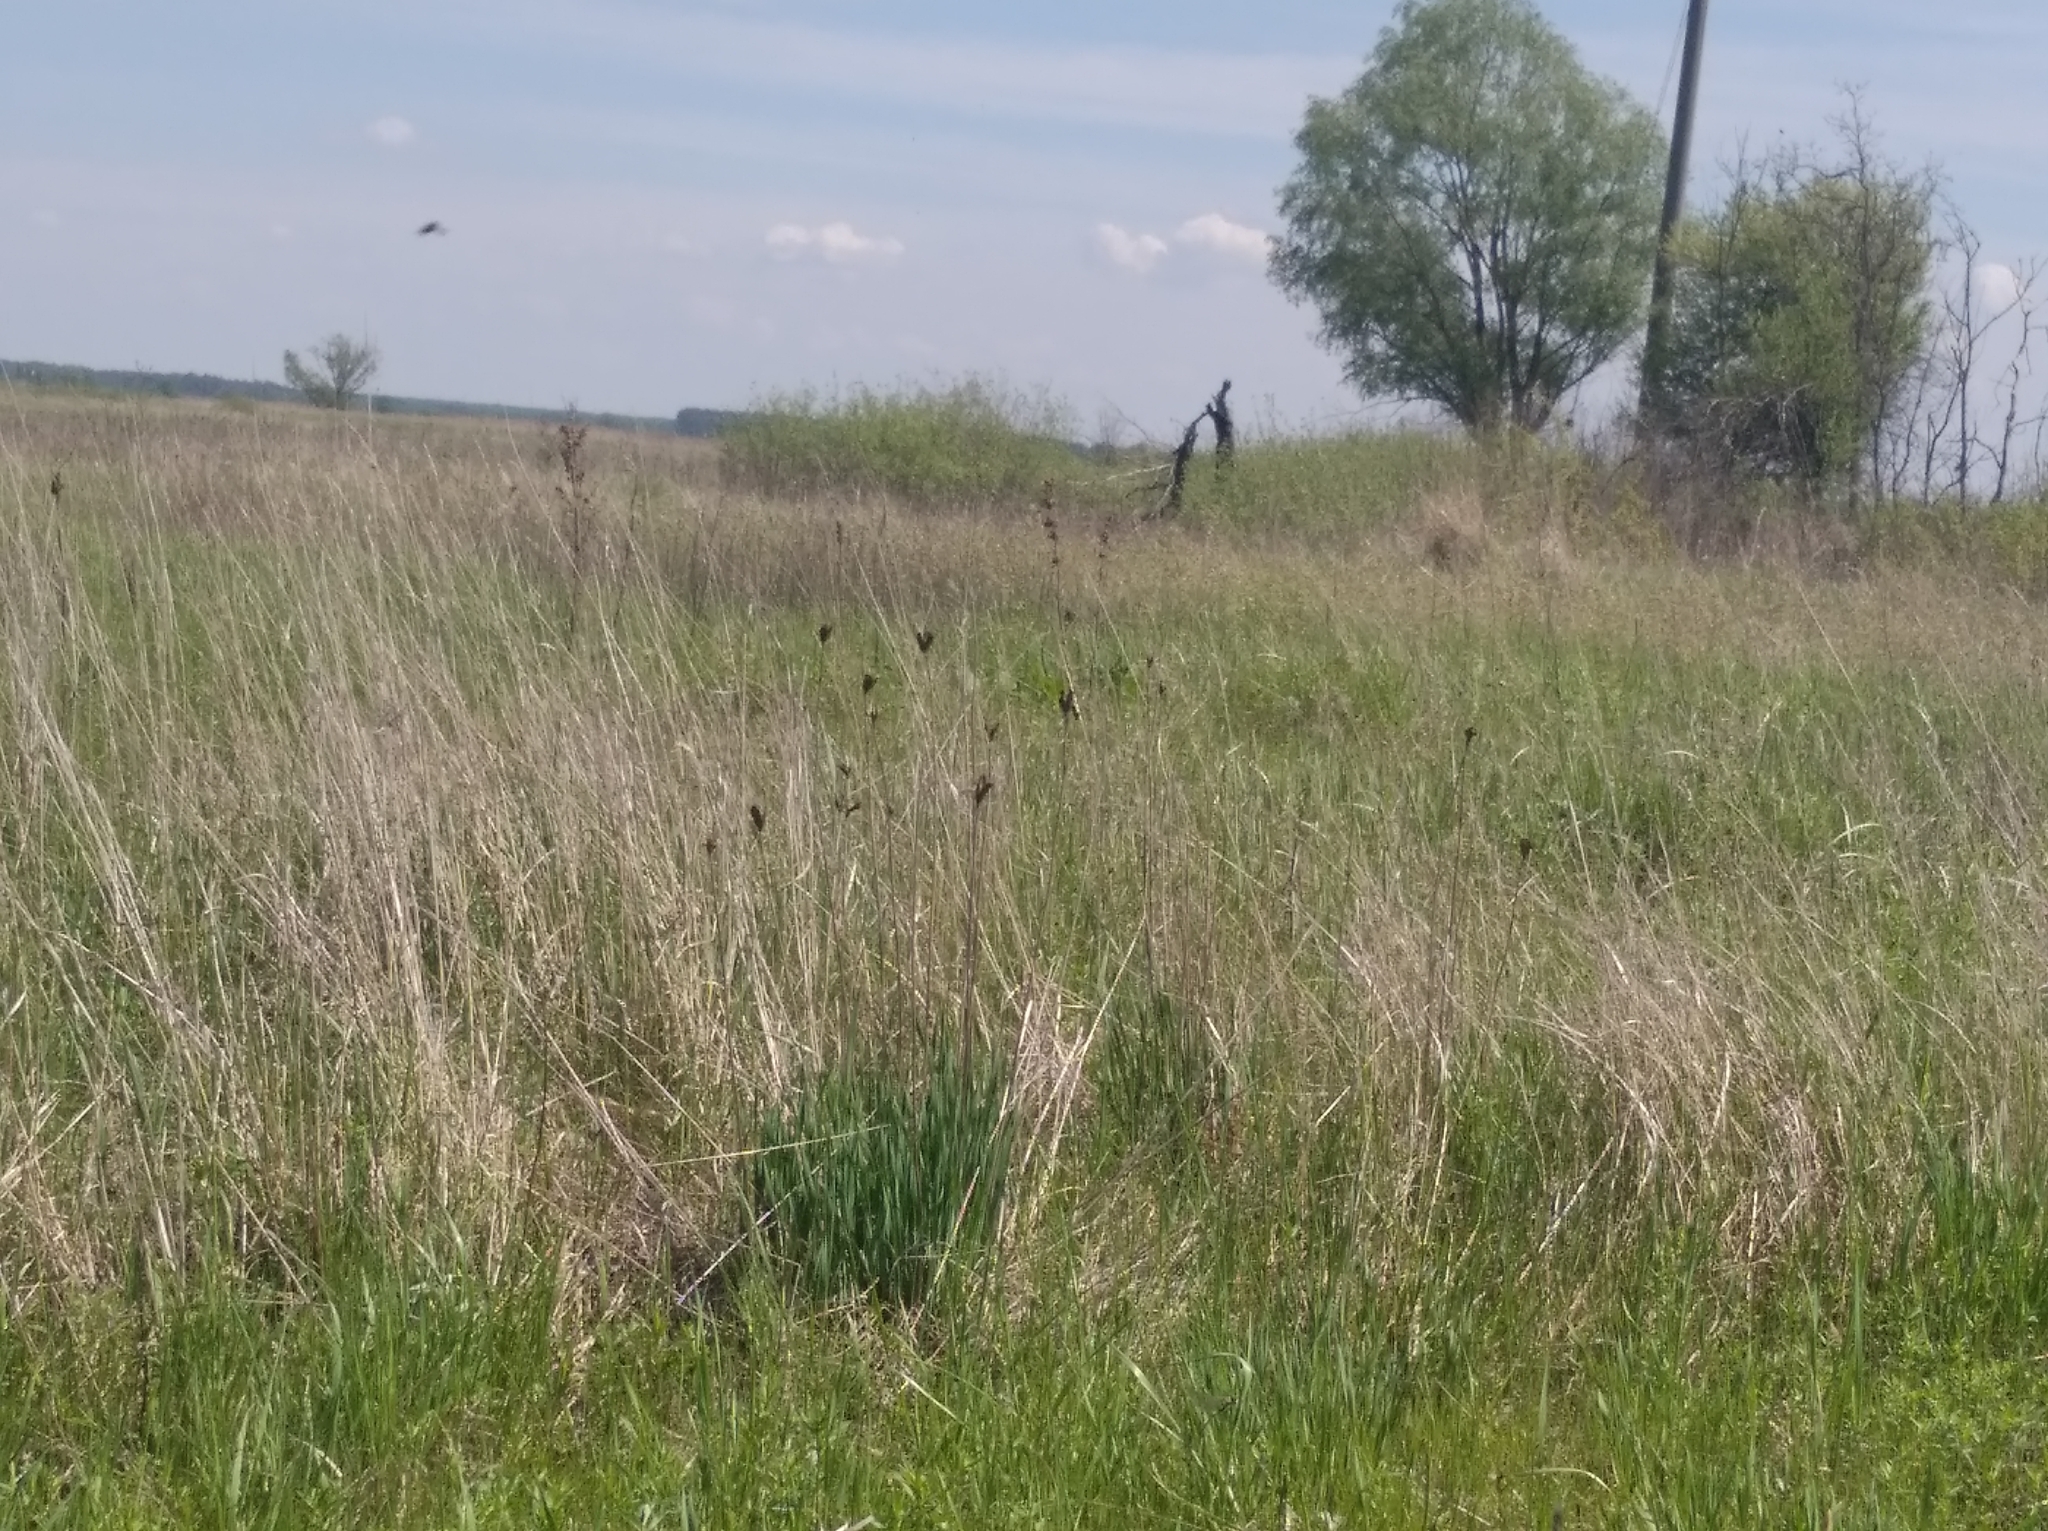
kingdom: Plantae
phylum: Tracheophyta
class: Liliopsida
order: Asparagales
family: Iridaceae
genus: Iris
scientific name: Iris sibirica
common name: Siberian iris
